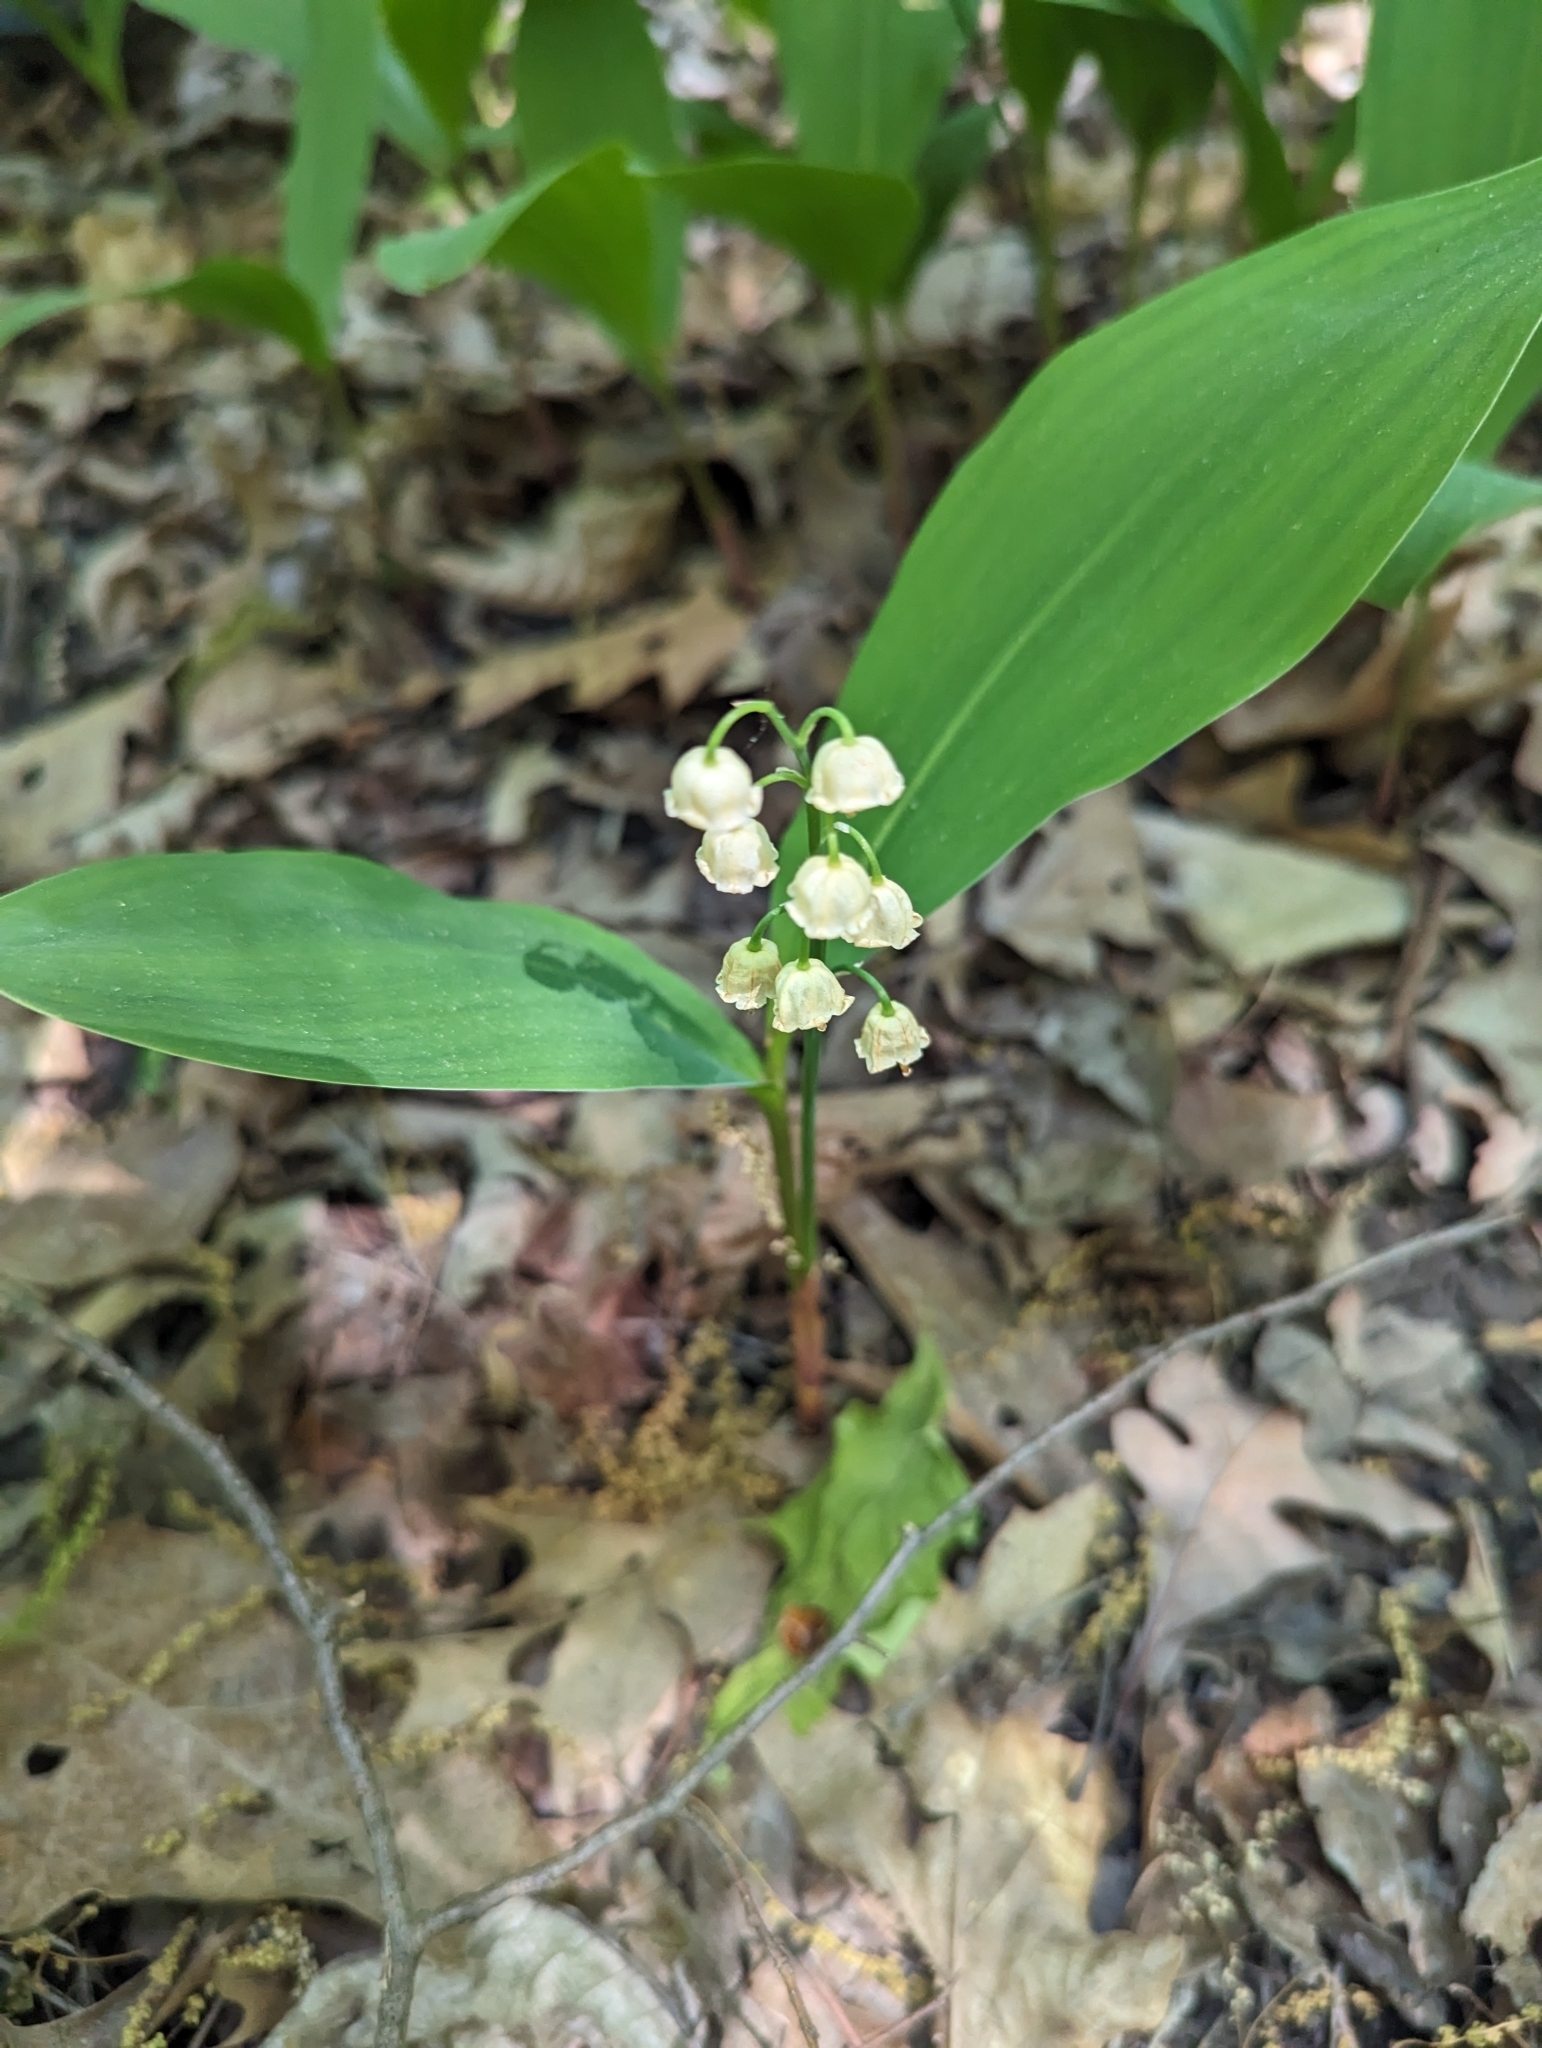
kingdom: Plantae
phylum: Tracheophyta
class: Liliopsida
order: Asparagales
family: Asparagaceae
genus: Convallaria
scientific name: Convallaria majalis
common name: Lily-of-the-valley
